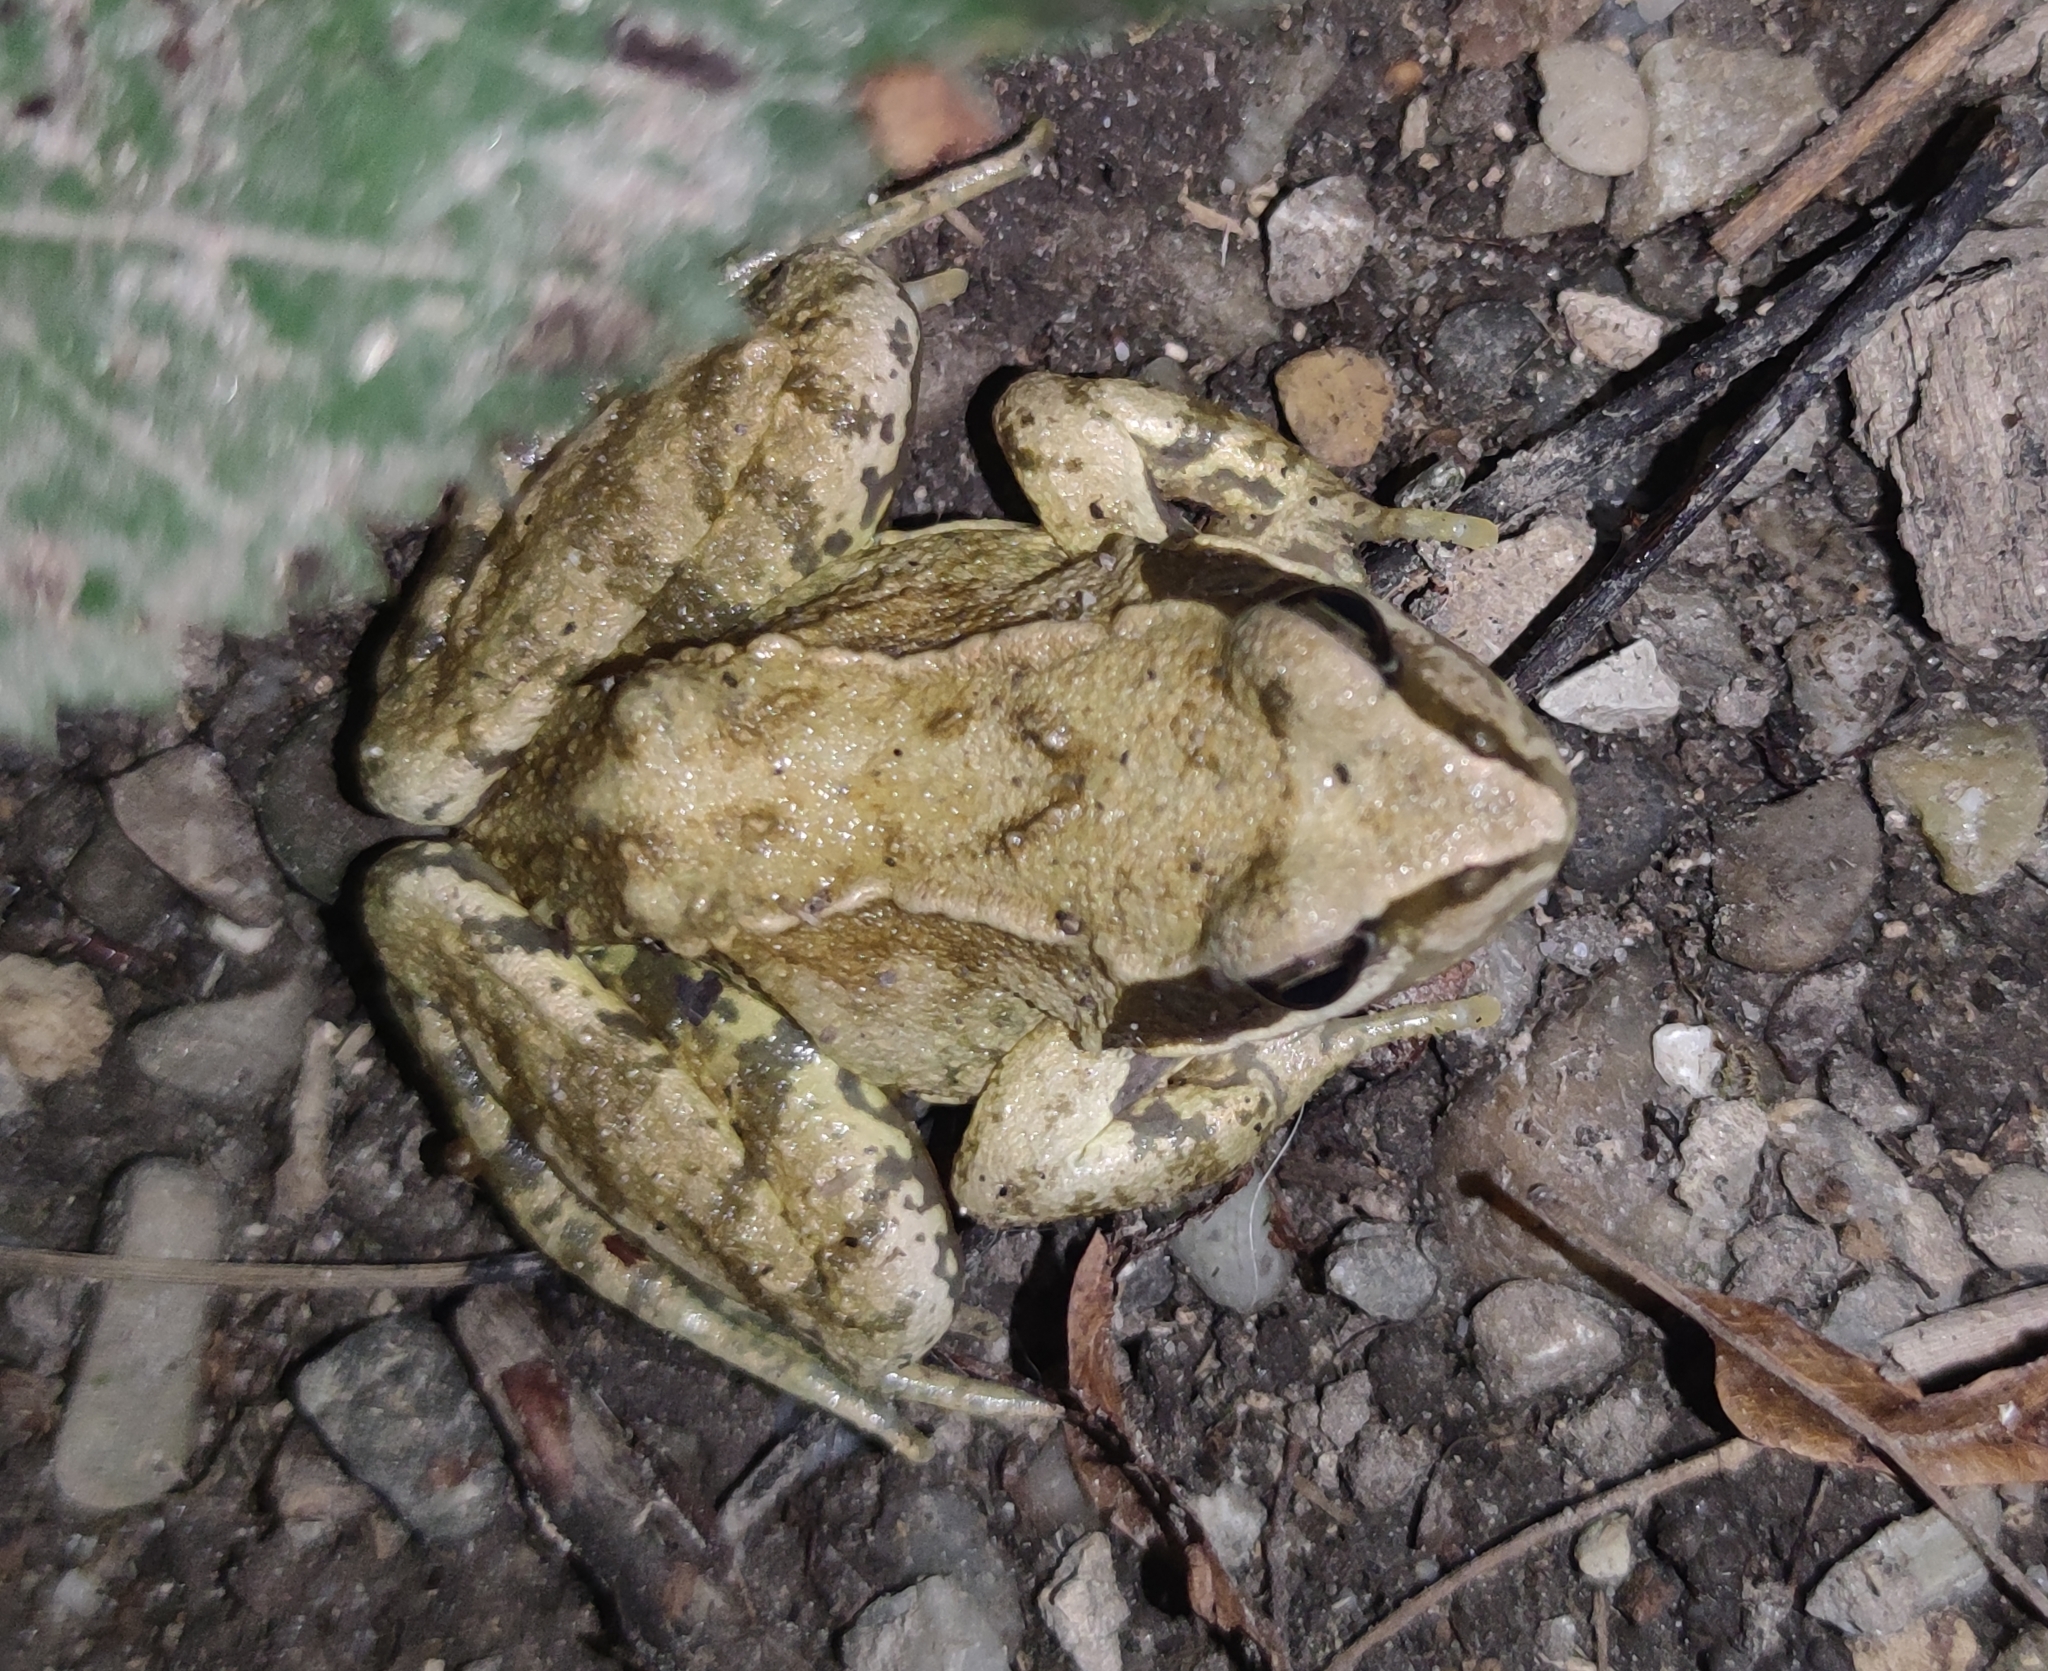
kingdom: Animalia
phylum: Chordata
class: Amphibia
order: Anura
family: Ranidae
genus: Rana
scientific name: Rana temporaria
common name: Common frog
